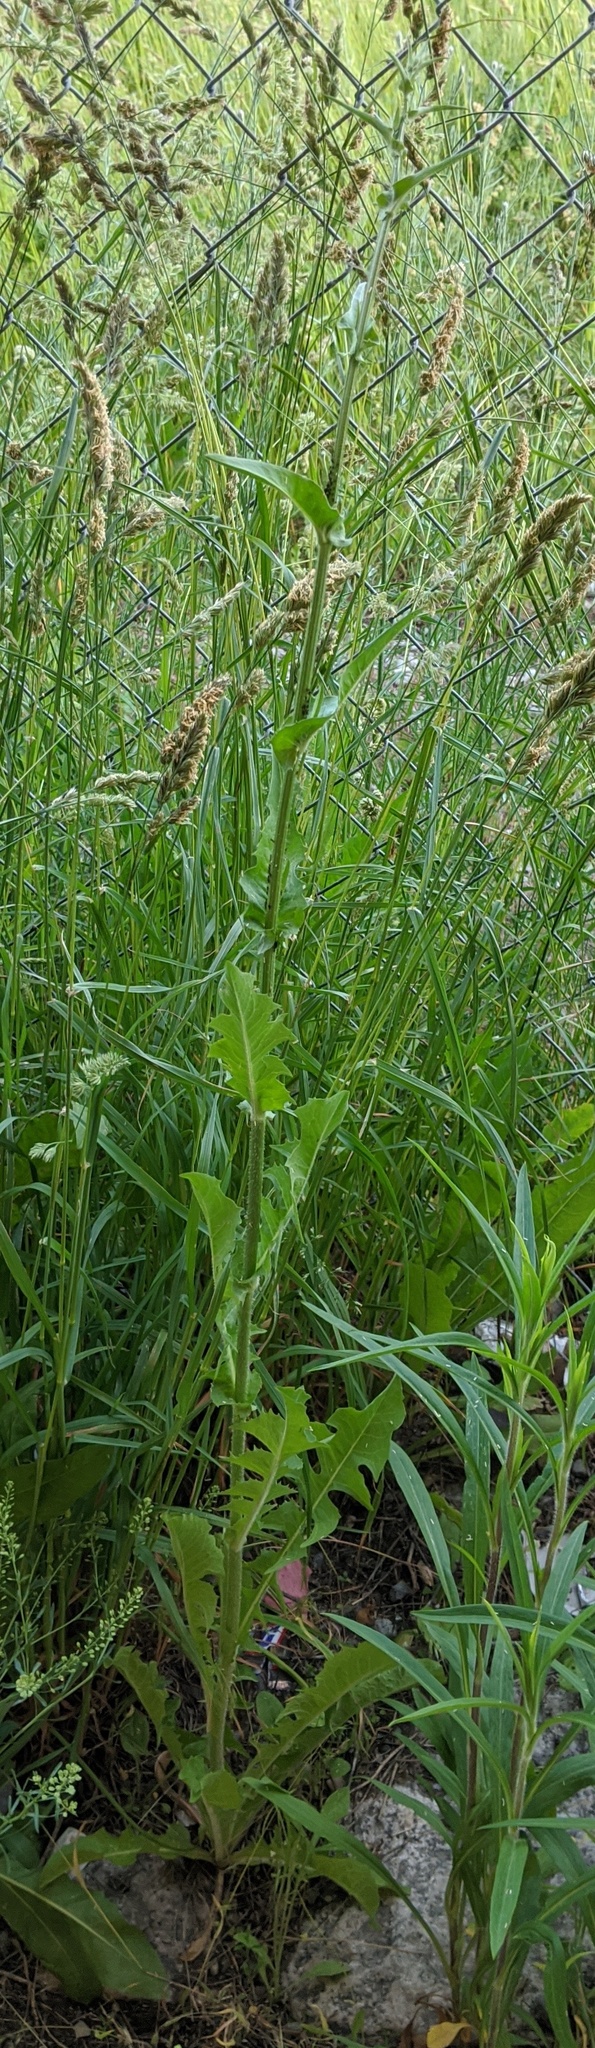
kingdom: Plantae
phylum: Tracheophyta
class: Magnoliopsida
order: Asterales
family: Asteraceae
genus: Cichorium
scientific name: Cichorium intybus
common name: Chicory
